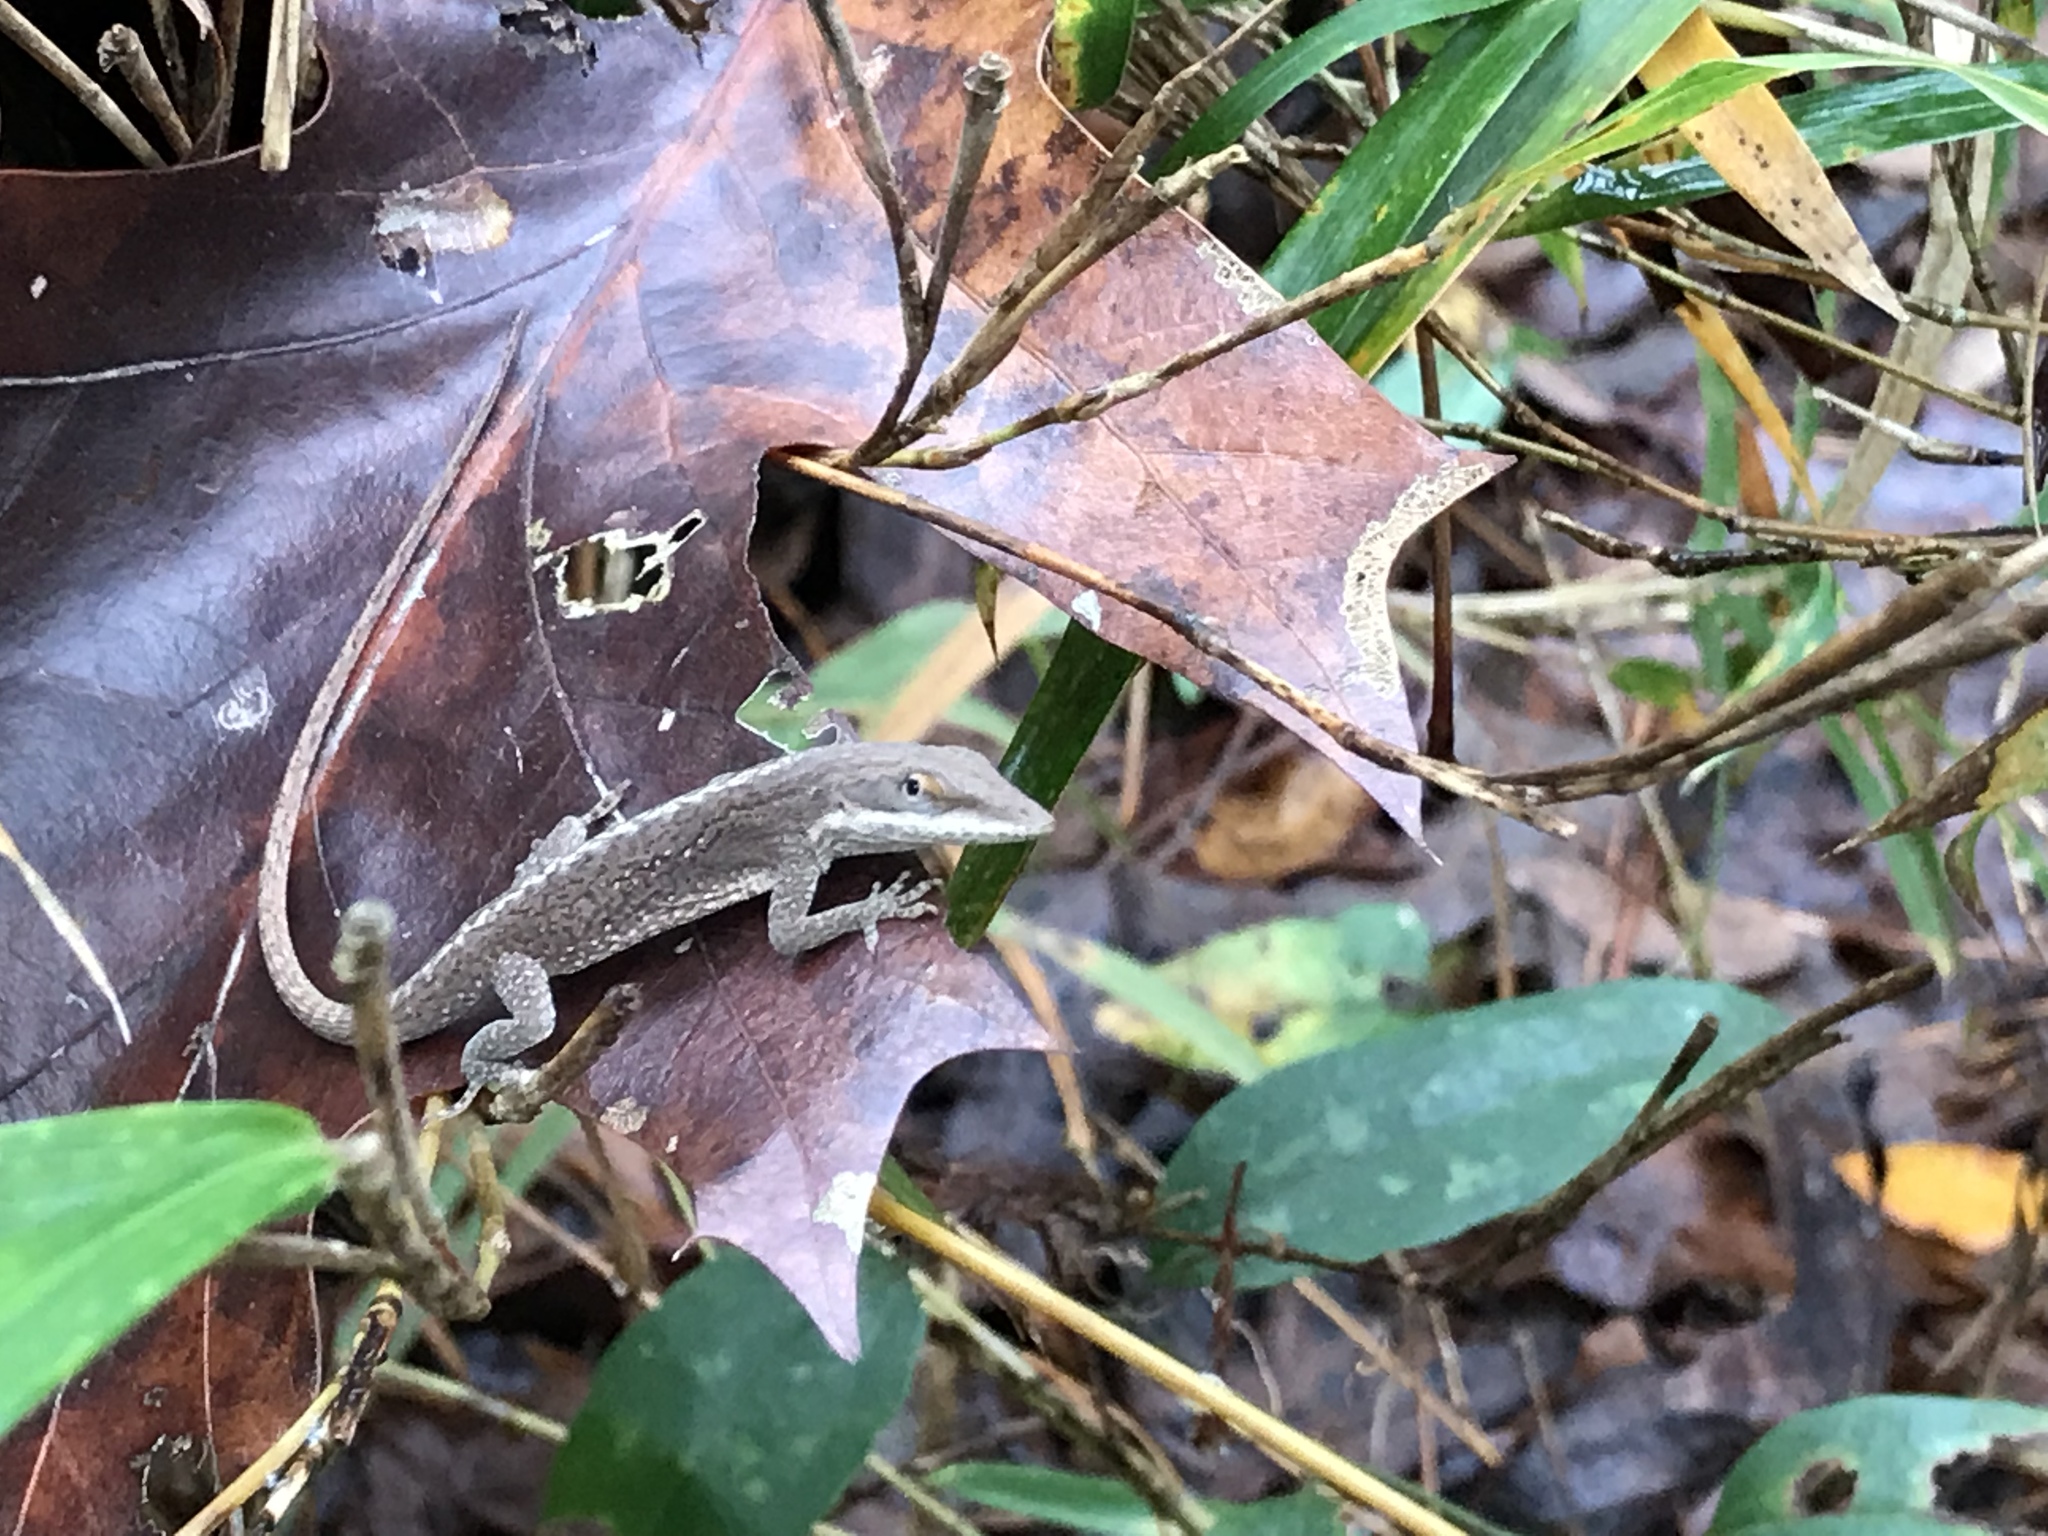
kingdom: Animalia
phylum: Chordata
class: Squamata
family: Dactyloidae
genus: Anolis
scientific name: Anolis carolinensis
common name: Green anole
